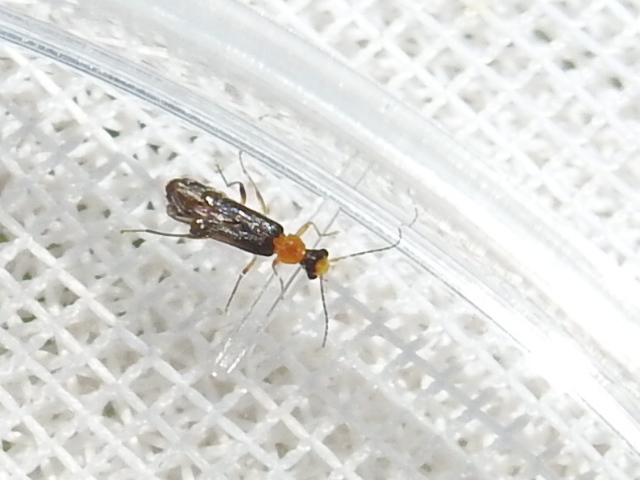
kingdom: Animalia
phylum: Arthropoda
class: Insecta
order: Coleoptera
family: Cantharidae
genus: Malthinus
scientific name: Malthinus occipitalis
